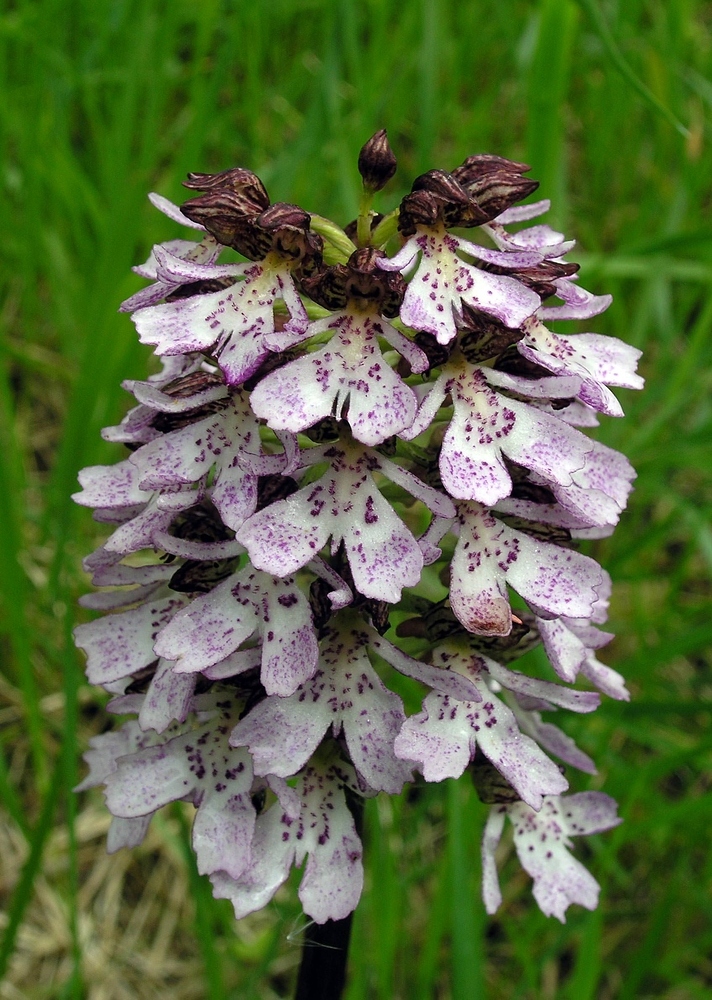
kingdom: Plantae
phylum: Tracheophyta
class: Liliopsida
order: Asparagales
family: Orchidaceae
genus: Orchis
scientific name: Orchis purpurea
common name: Lady orchid
